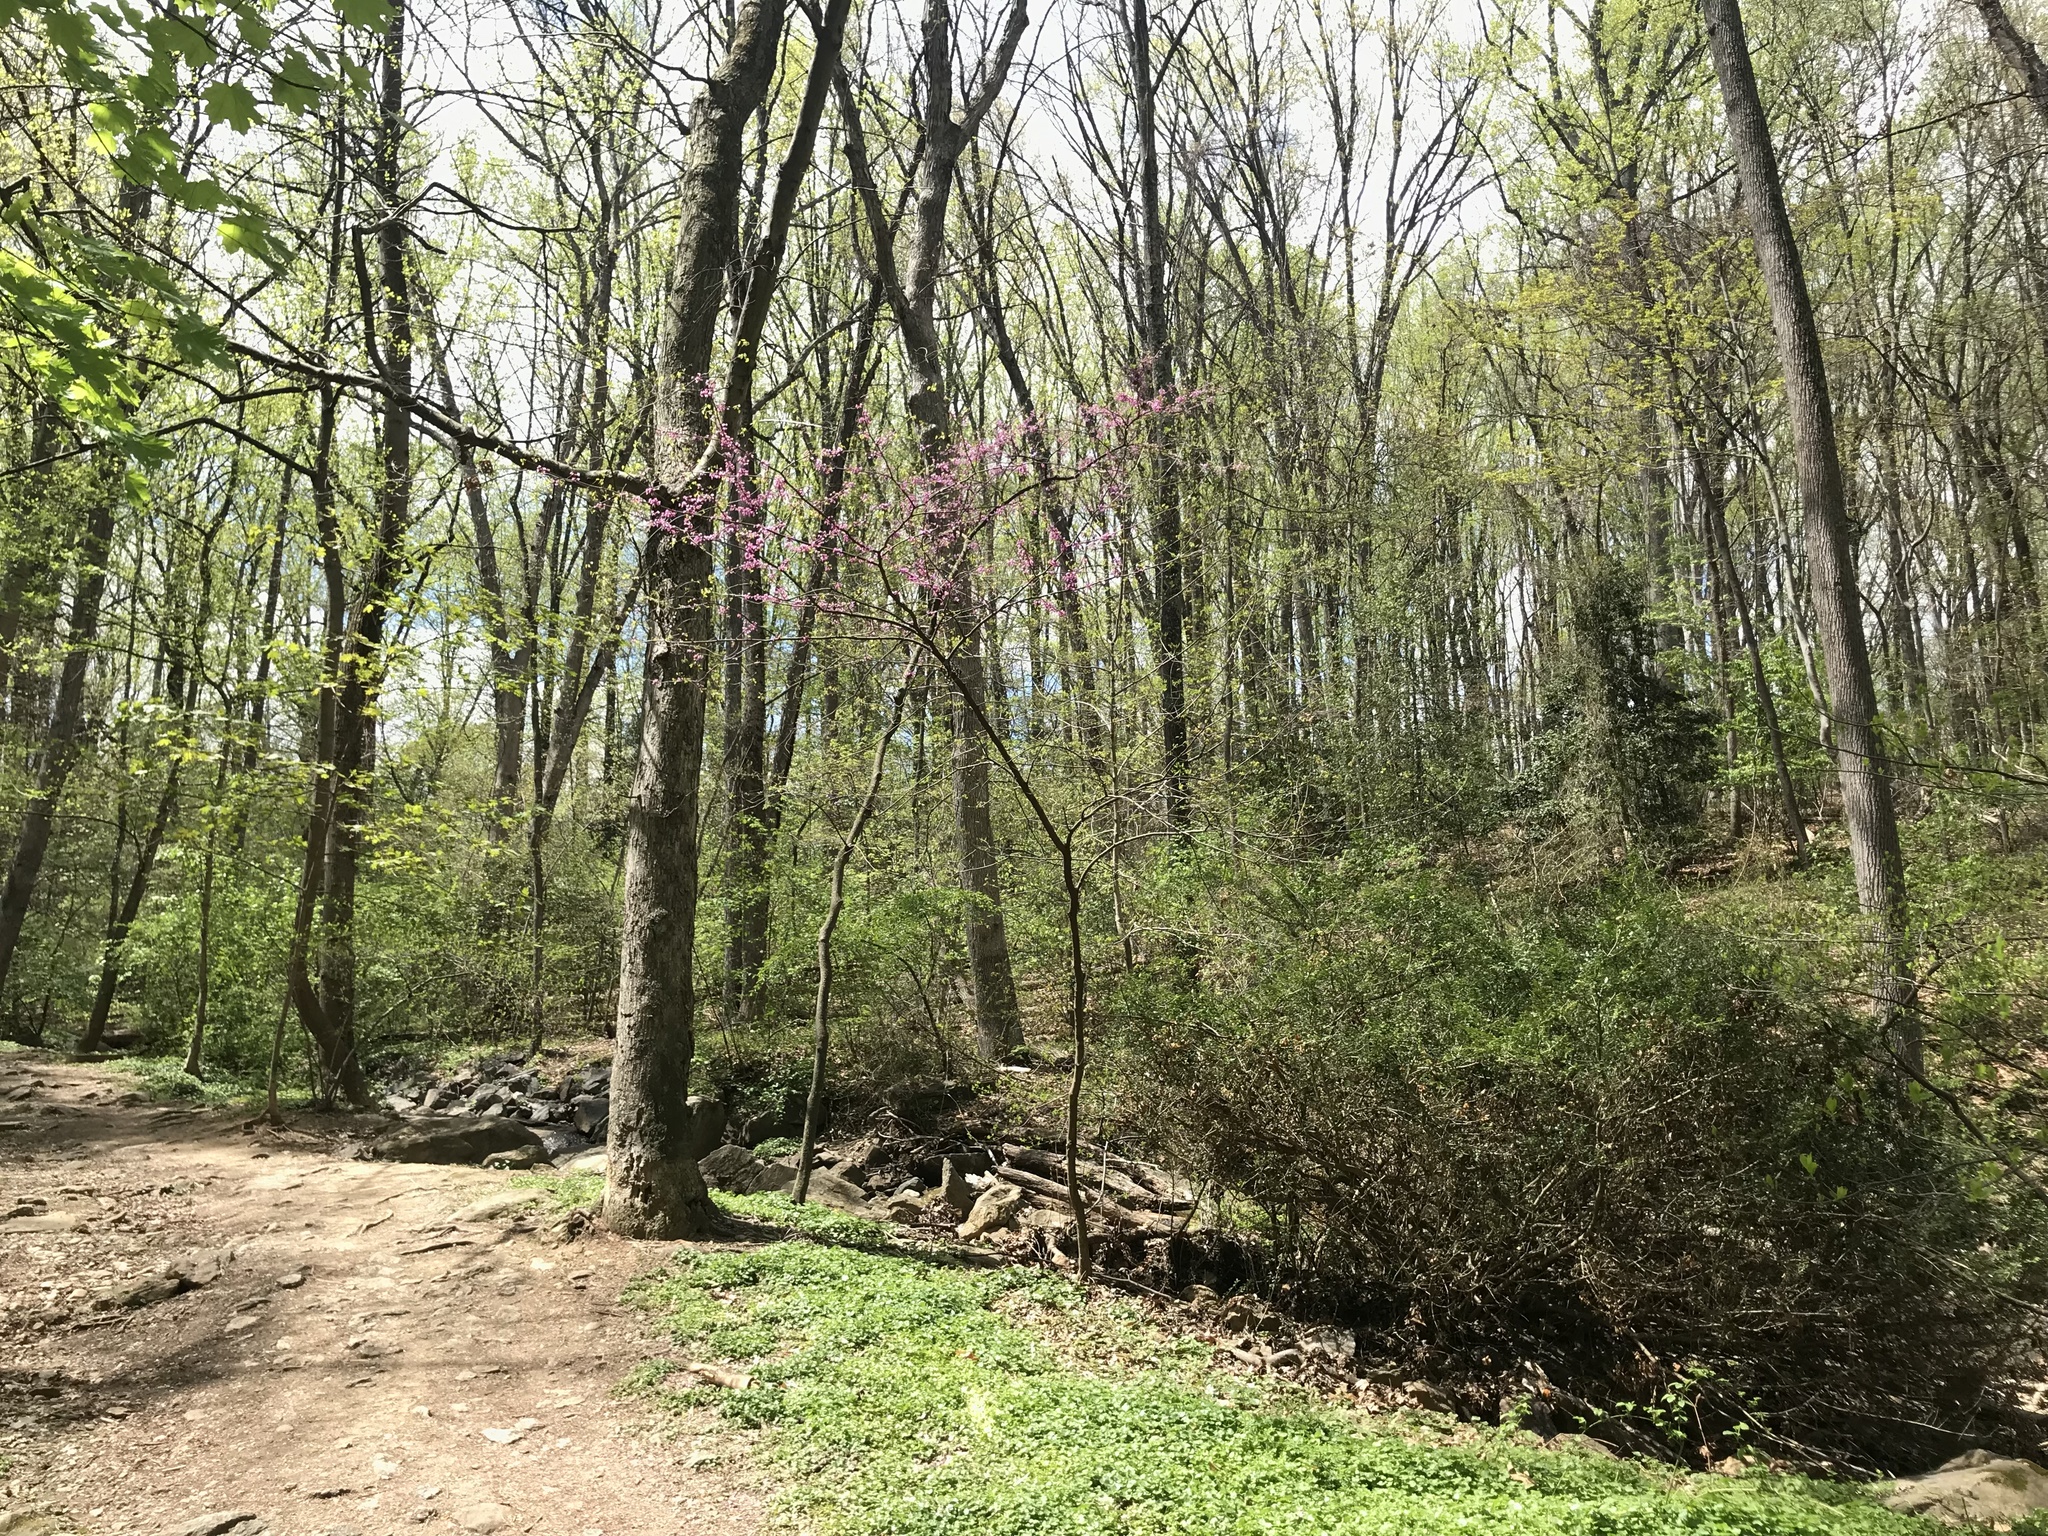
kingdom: Plantae
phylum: Tracheophyta
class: Magnoliopsida
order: Fabales
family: Fabaceae
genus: Cercis
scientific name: Cercis canadensis
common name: Eastern redbud
